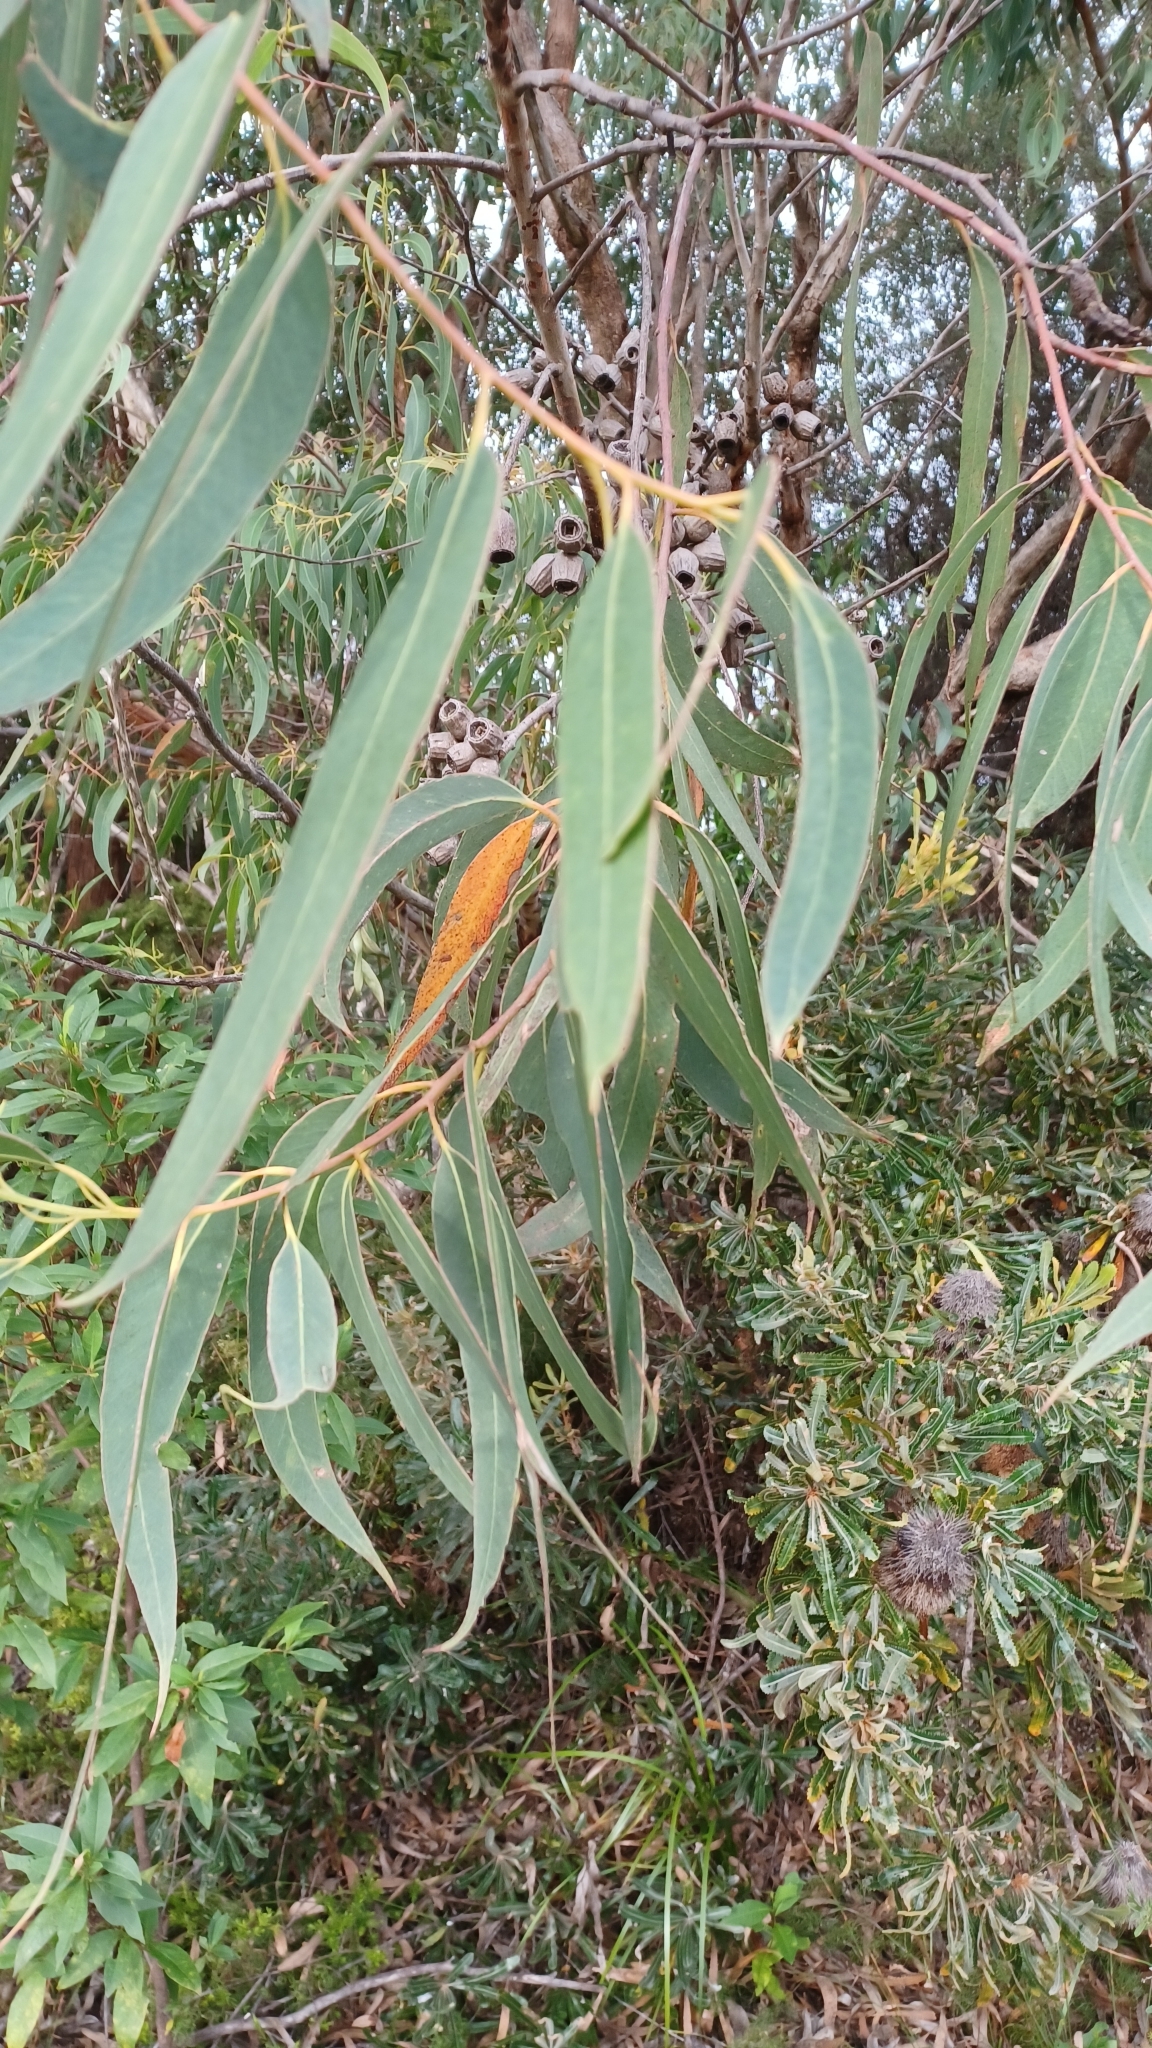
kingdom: Plantae
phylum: Tracheophyta
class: Magnoliopsida
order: Myrtales
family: Myrtaceae
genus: Eucalyptus
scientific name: Eucalyptus planchoniana
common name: Bastard-tallow-wood
